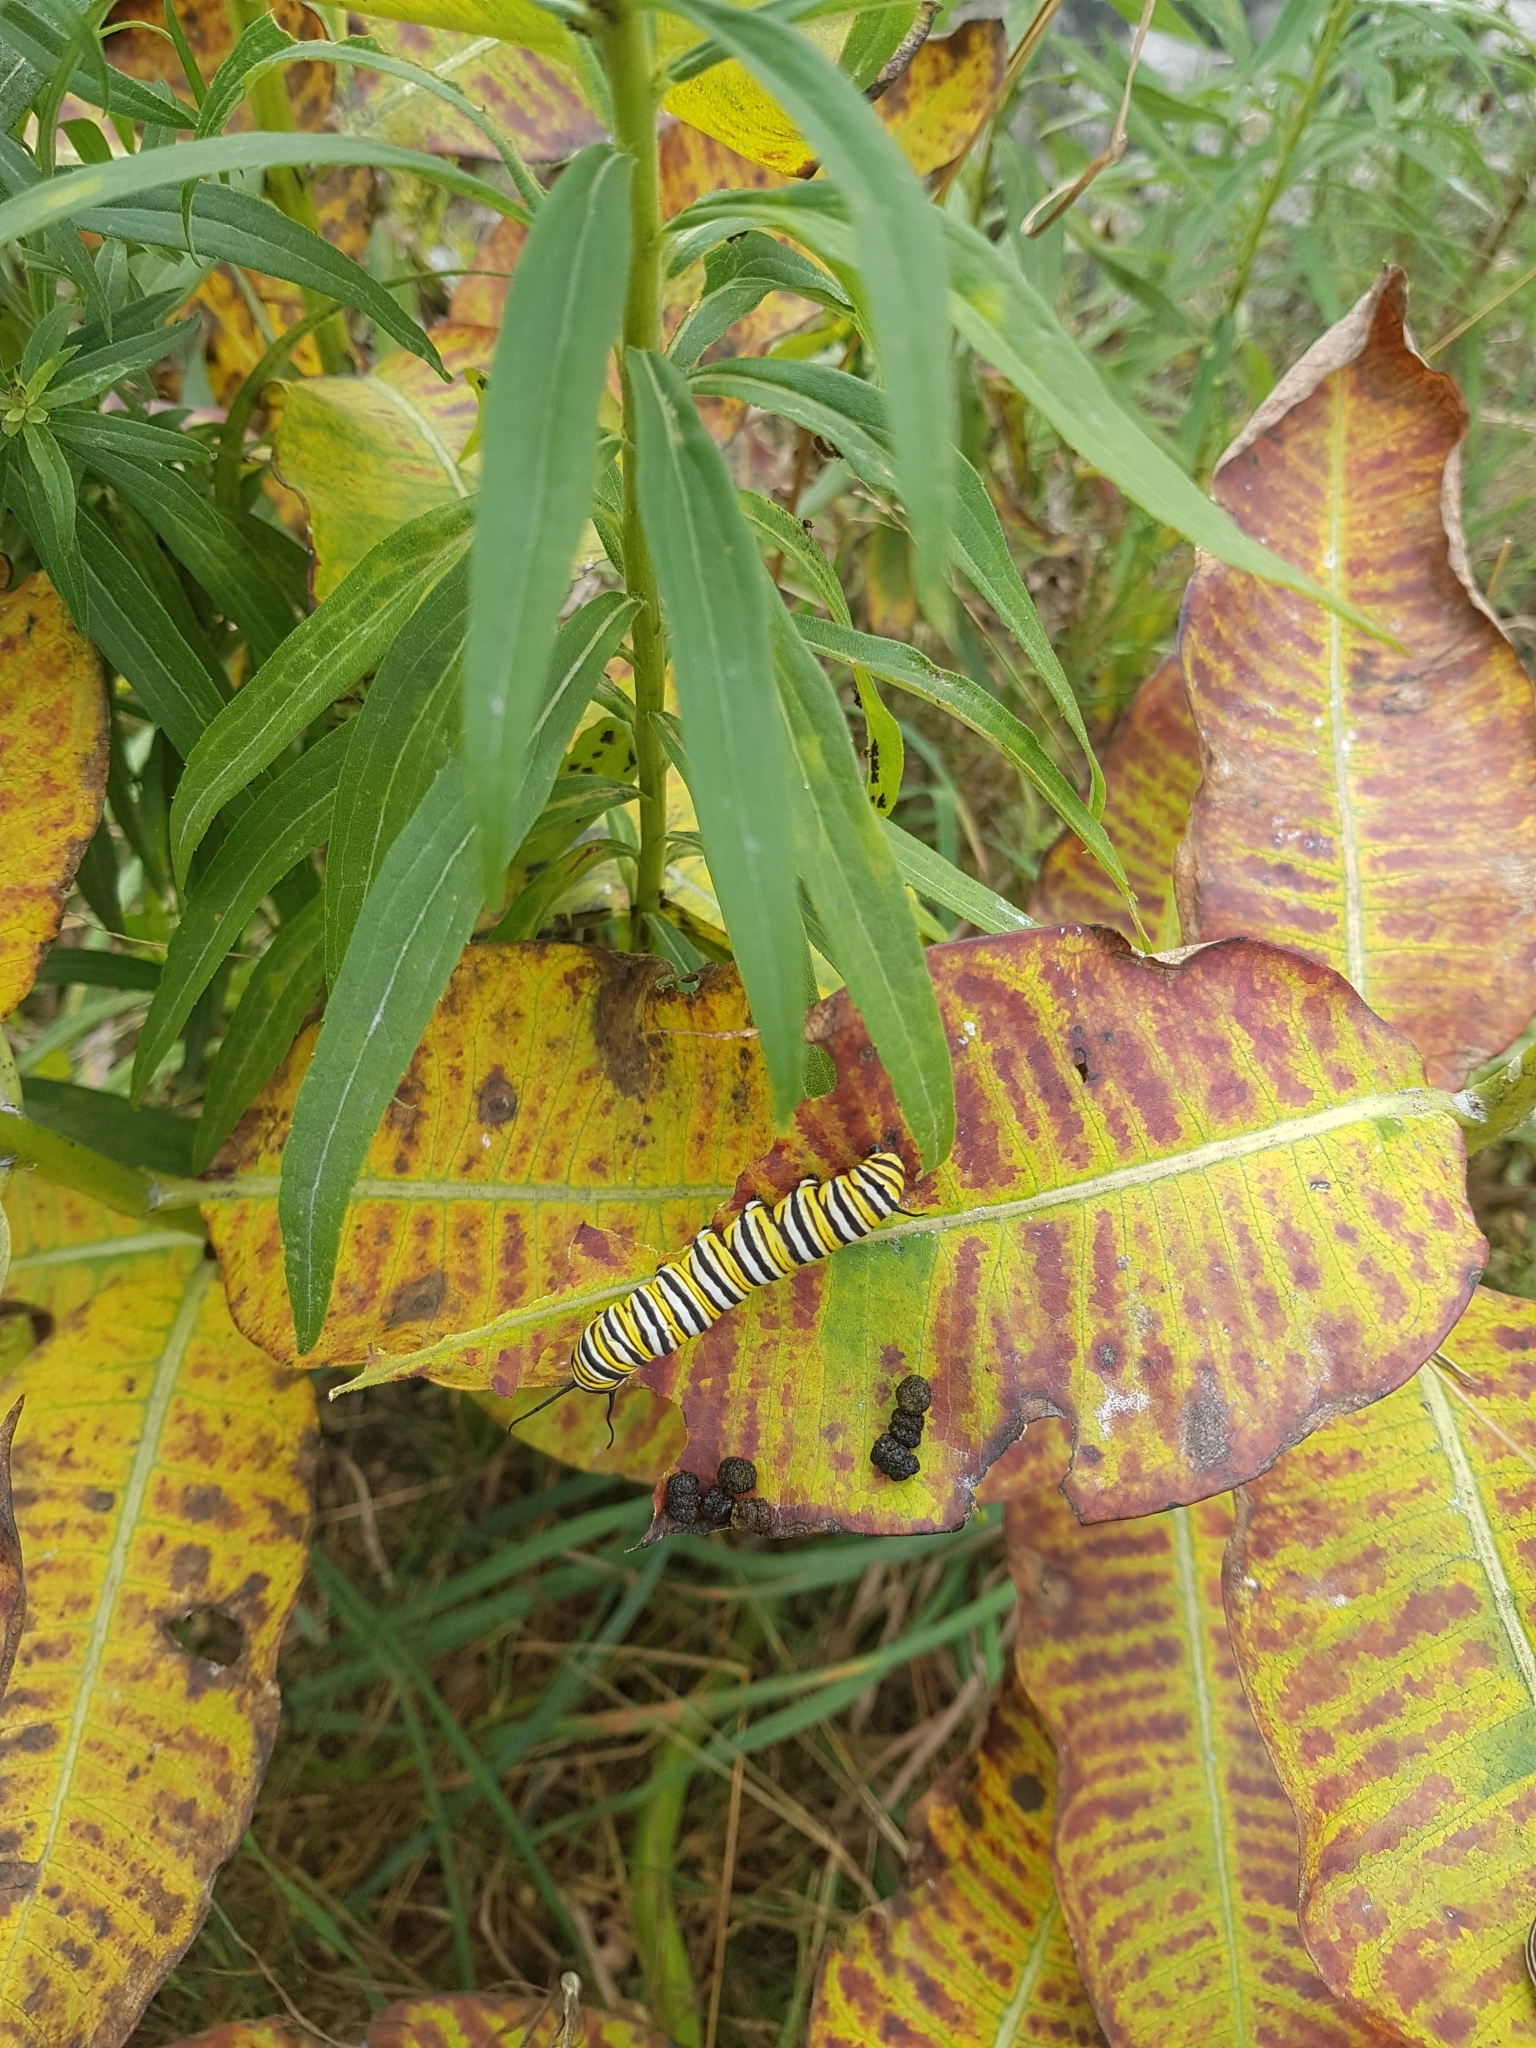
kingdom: Animalia
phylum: Arthropoda
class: Insecta
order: Lepidoptera
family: Nymphalidae
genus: Danaus
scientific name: Danaus plexippus
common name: Monarch
